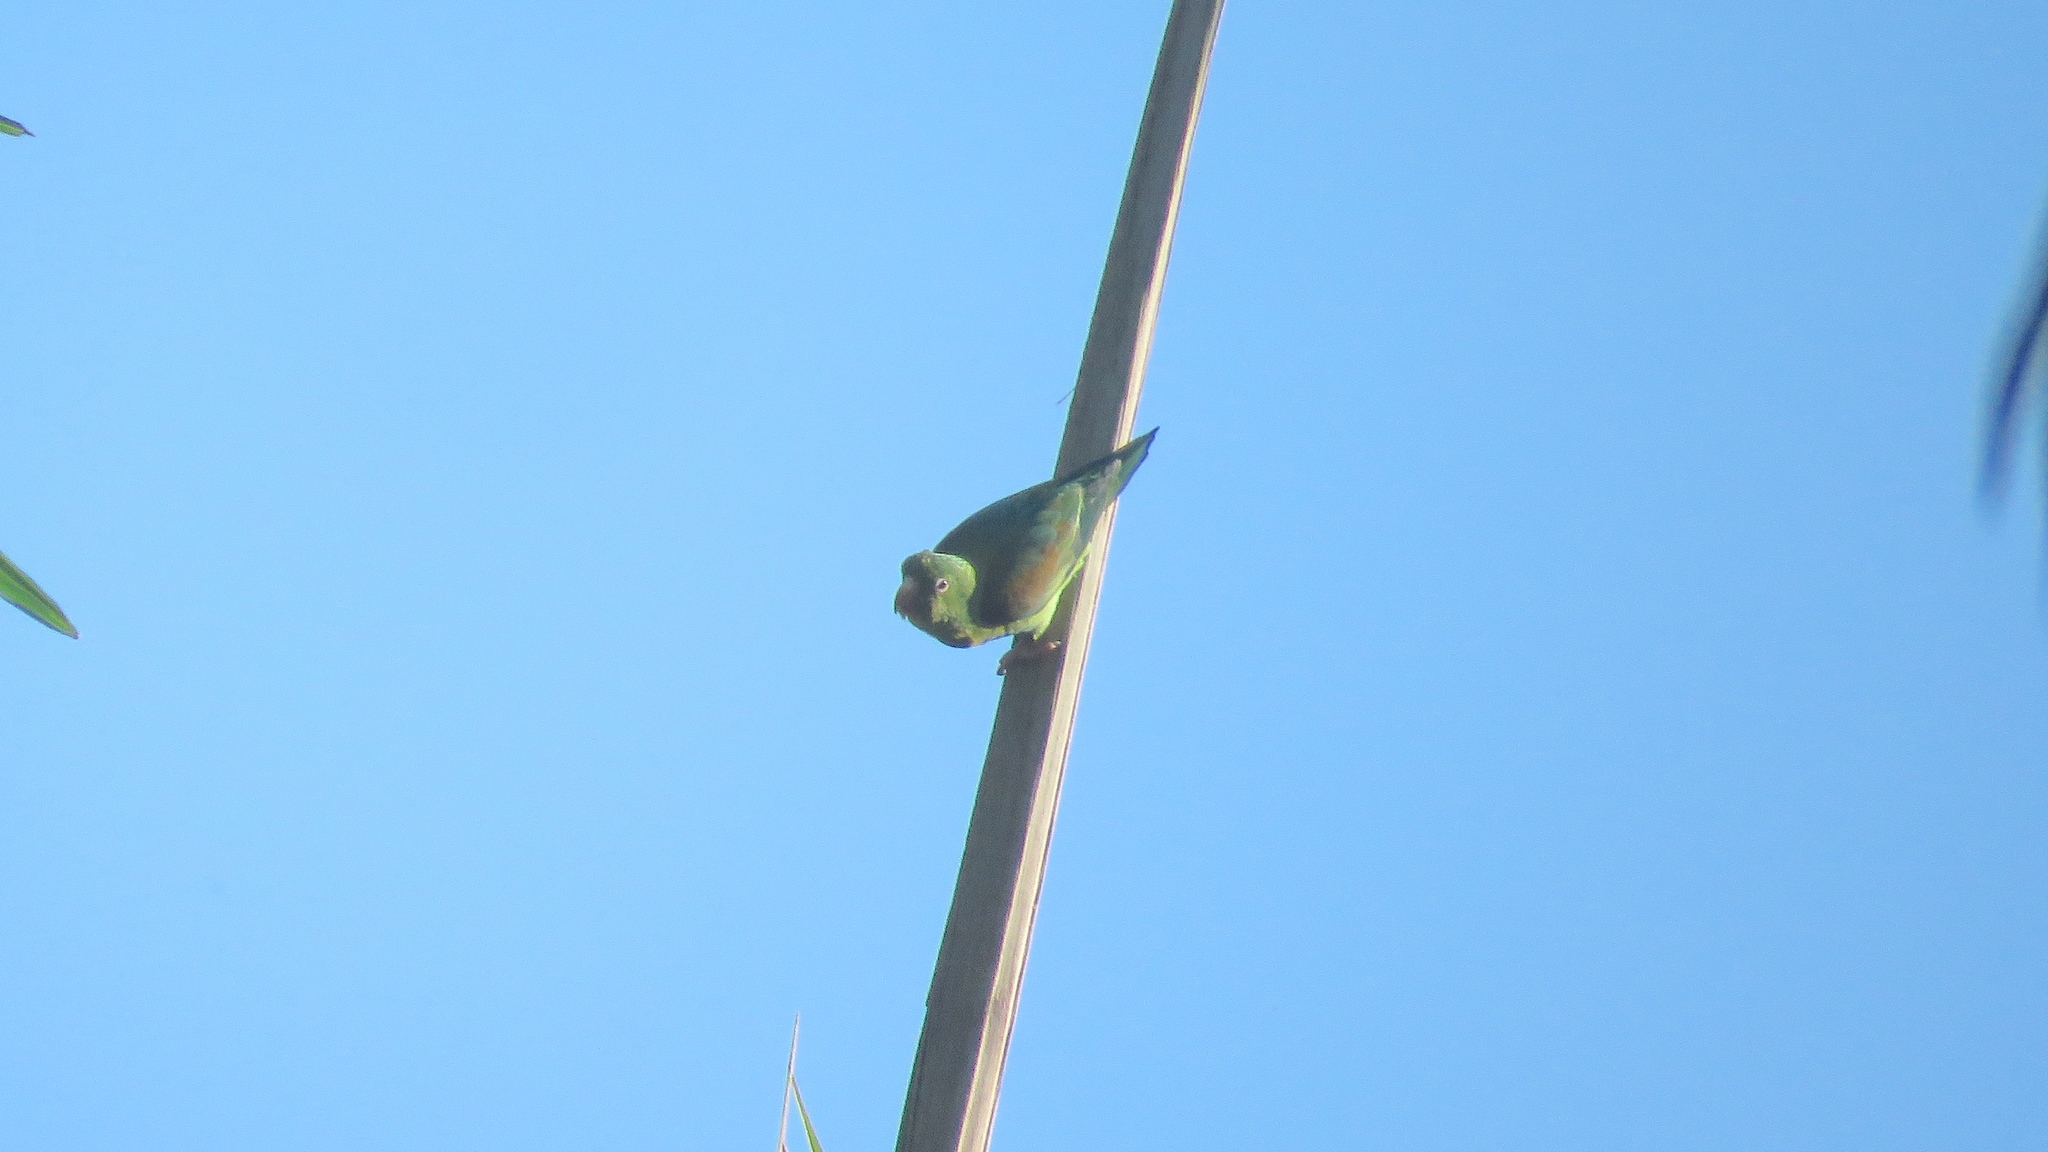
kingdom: Animalia
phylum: Chordata
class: Aves
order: Psittaciformes
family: Psittacidae
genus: Brotogeris
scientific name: Brotogeris jugularis
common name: Orange-chinned parakeet
